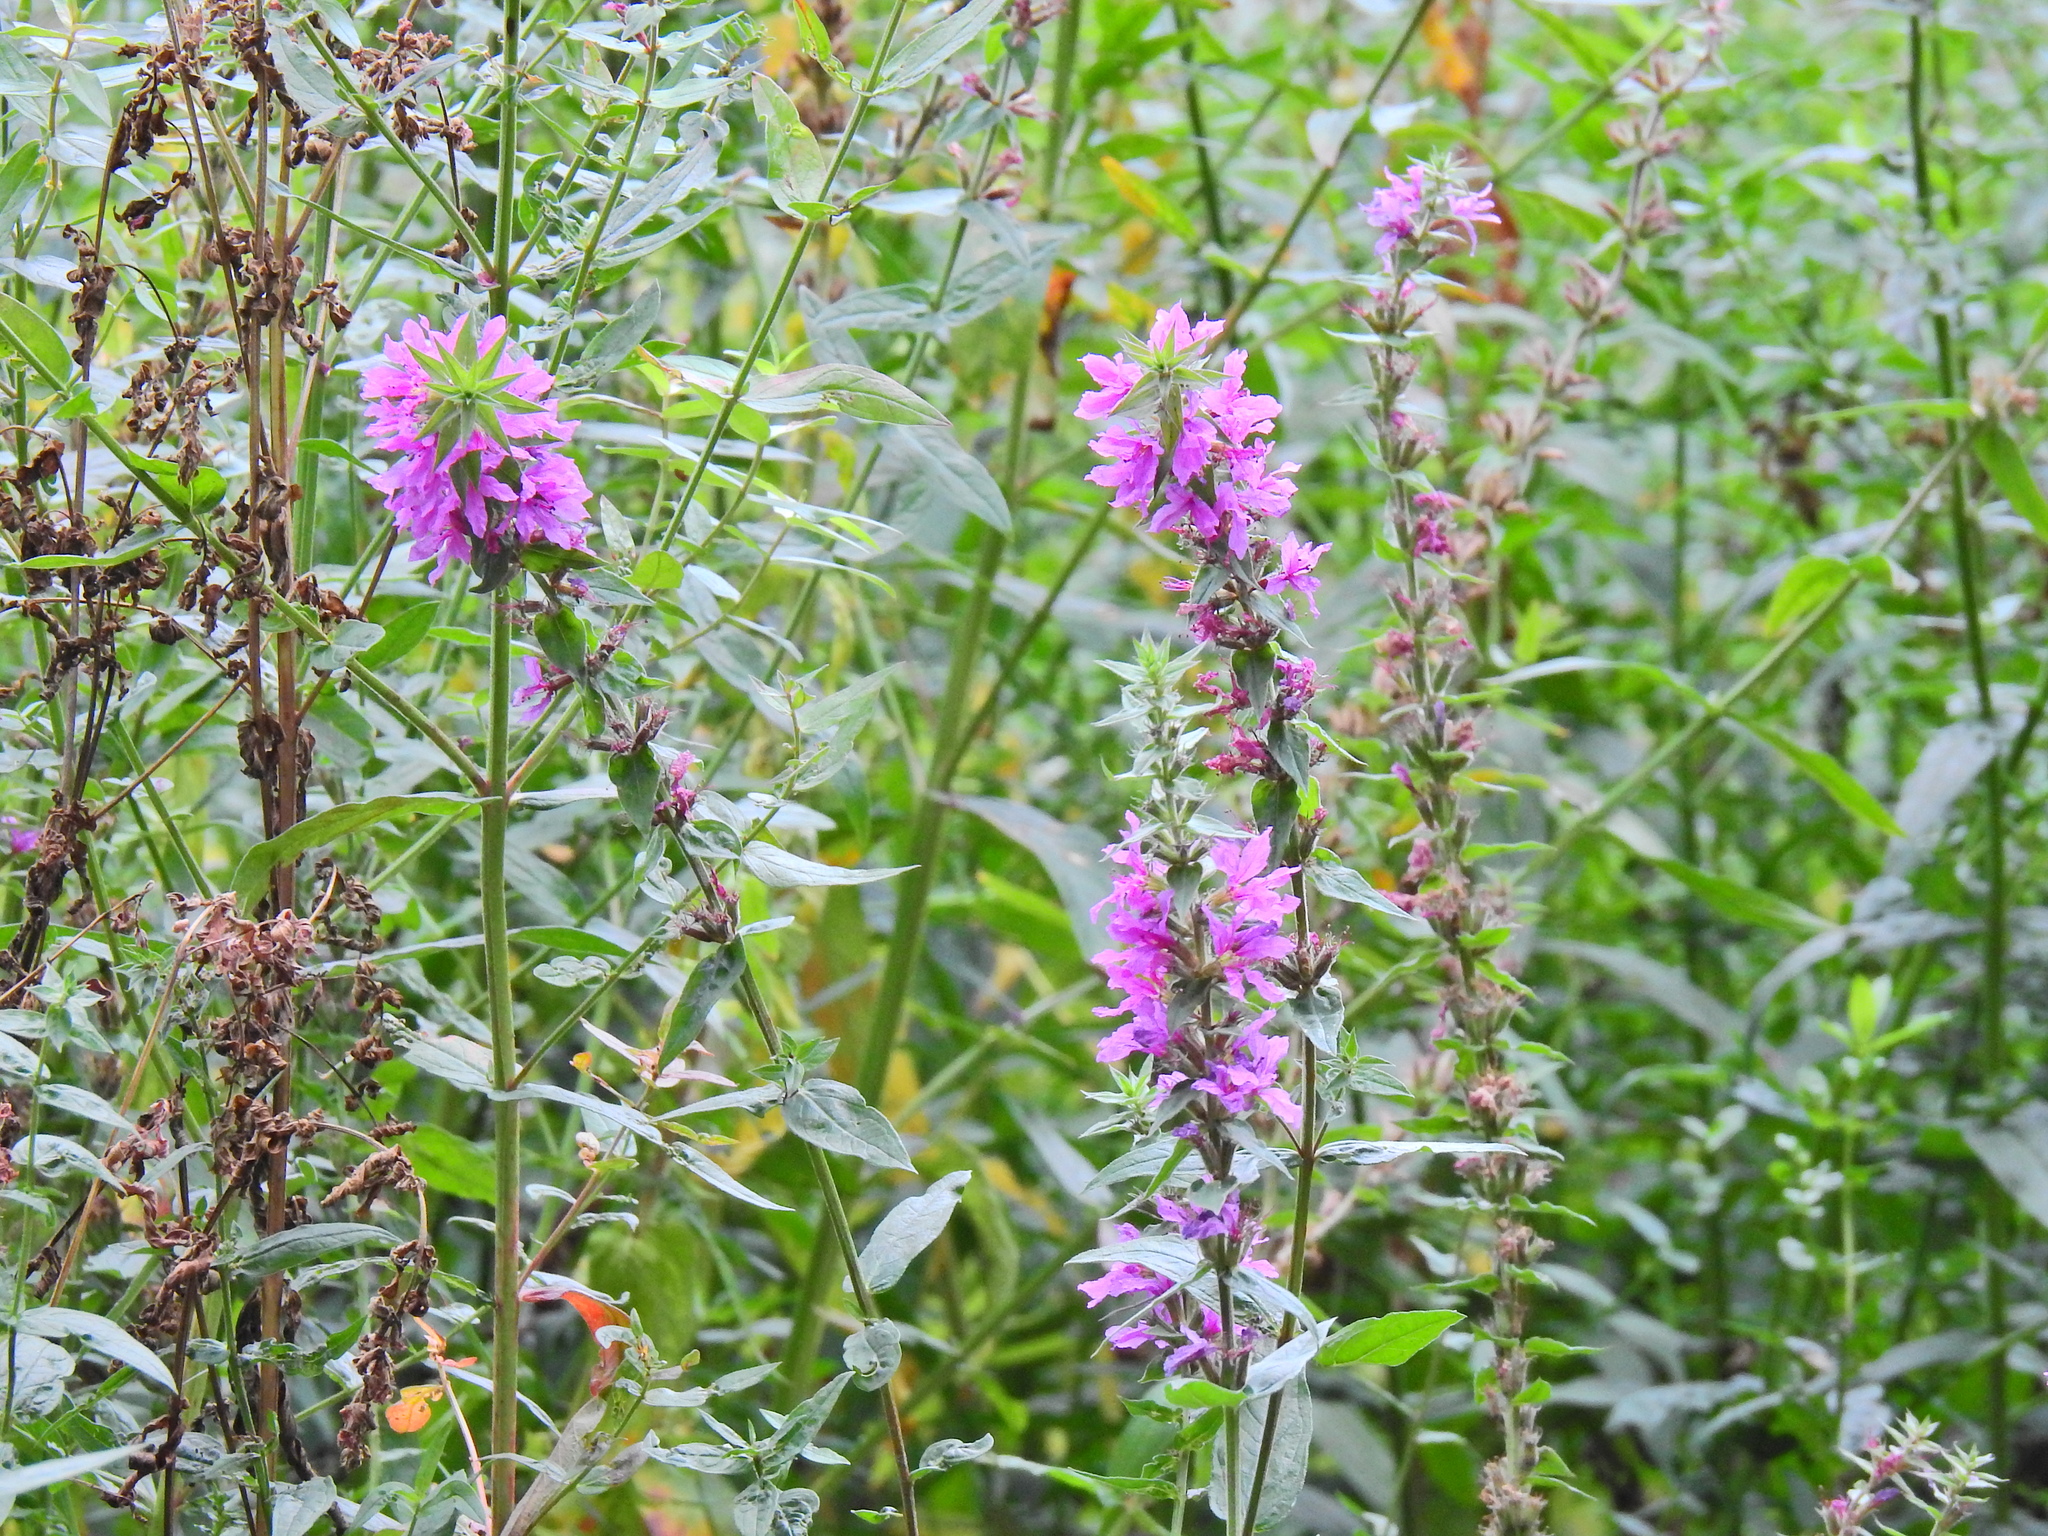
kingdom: Plantae
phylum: Tracheophyta
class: Magnoliopsida
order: Myrtales
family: Lythraceae
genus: Lythrum
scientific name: Lythrum salicaria
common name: Purple loosestrife
